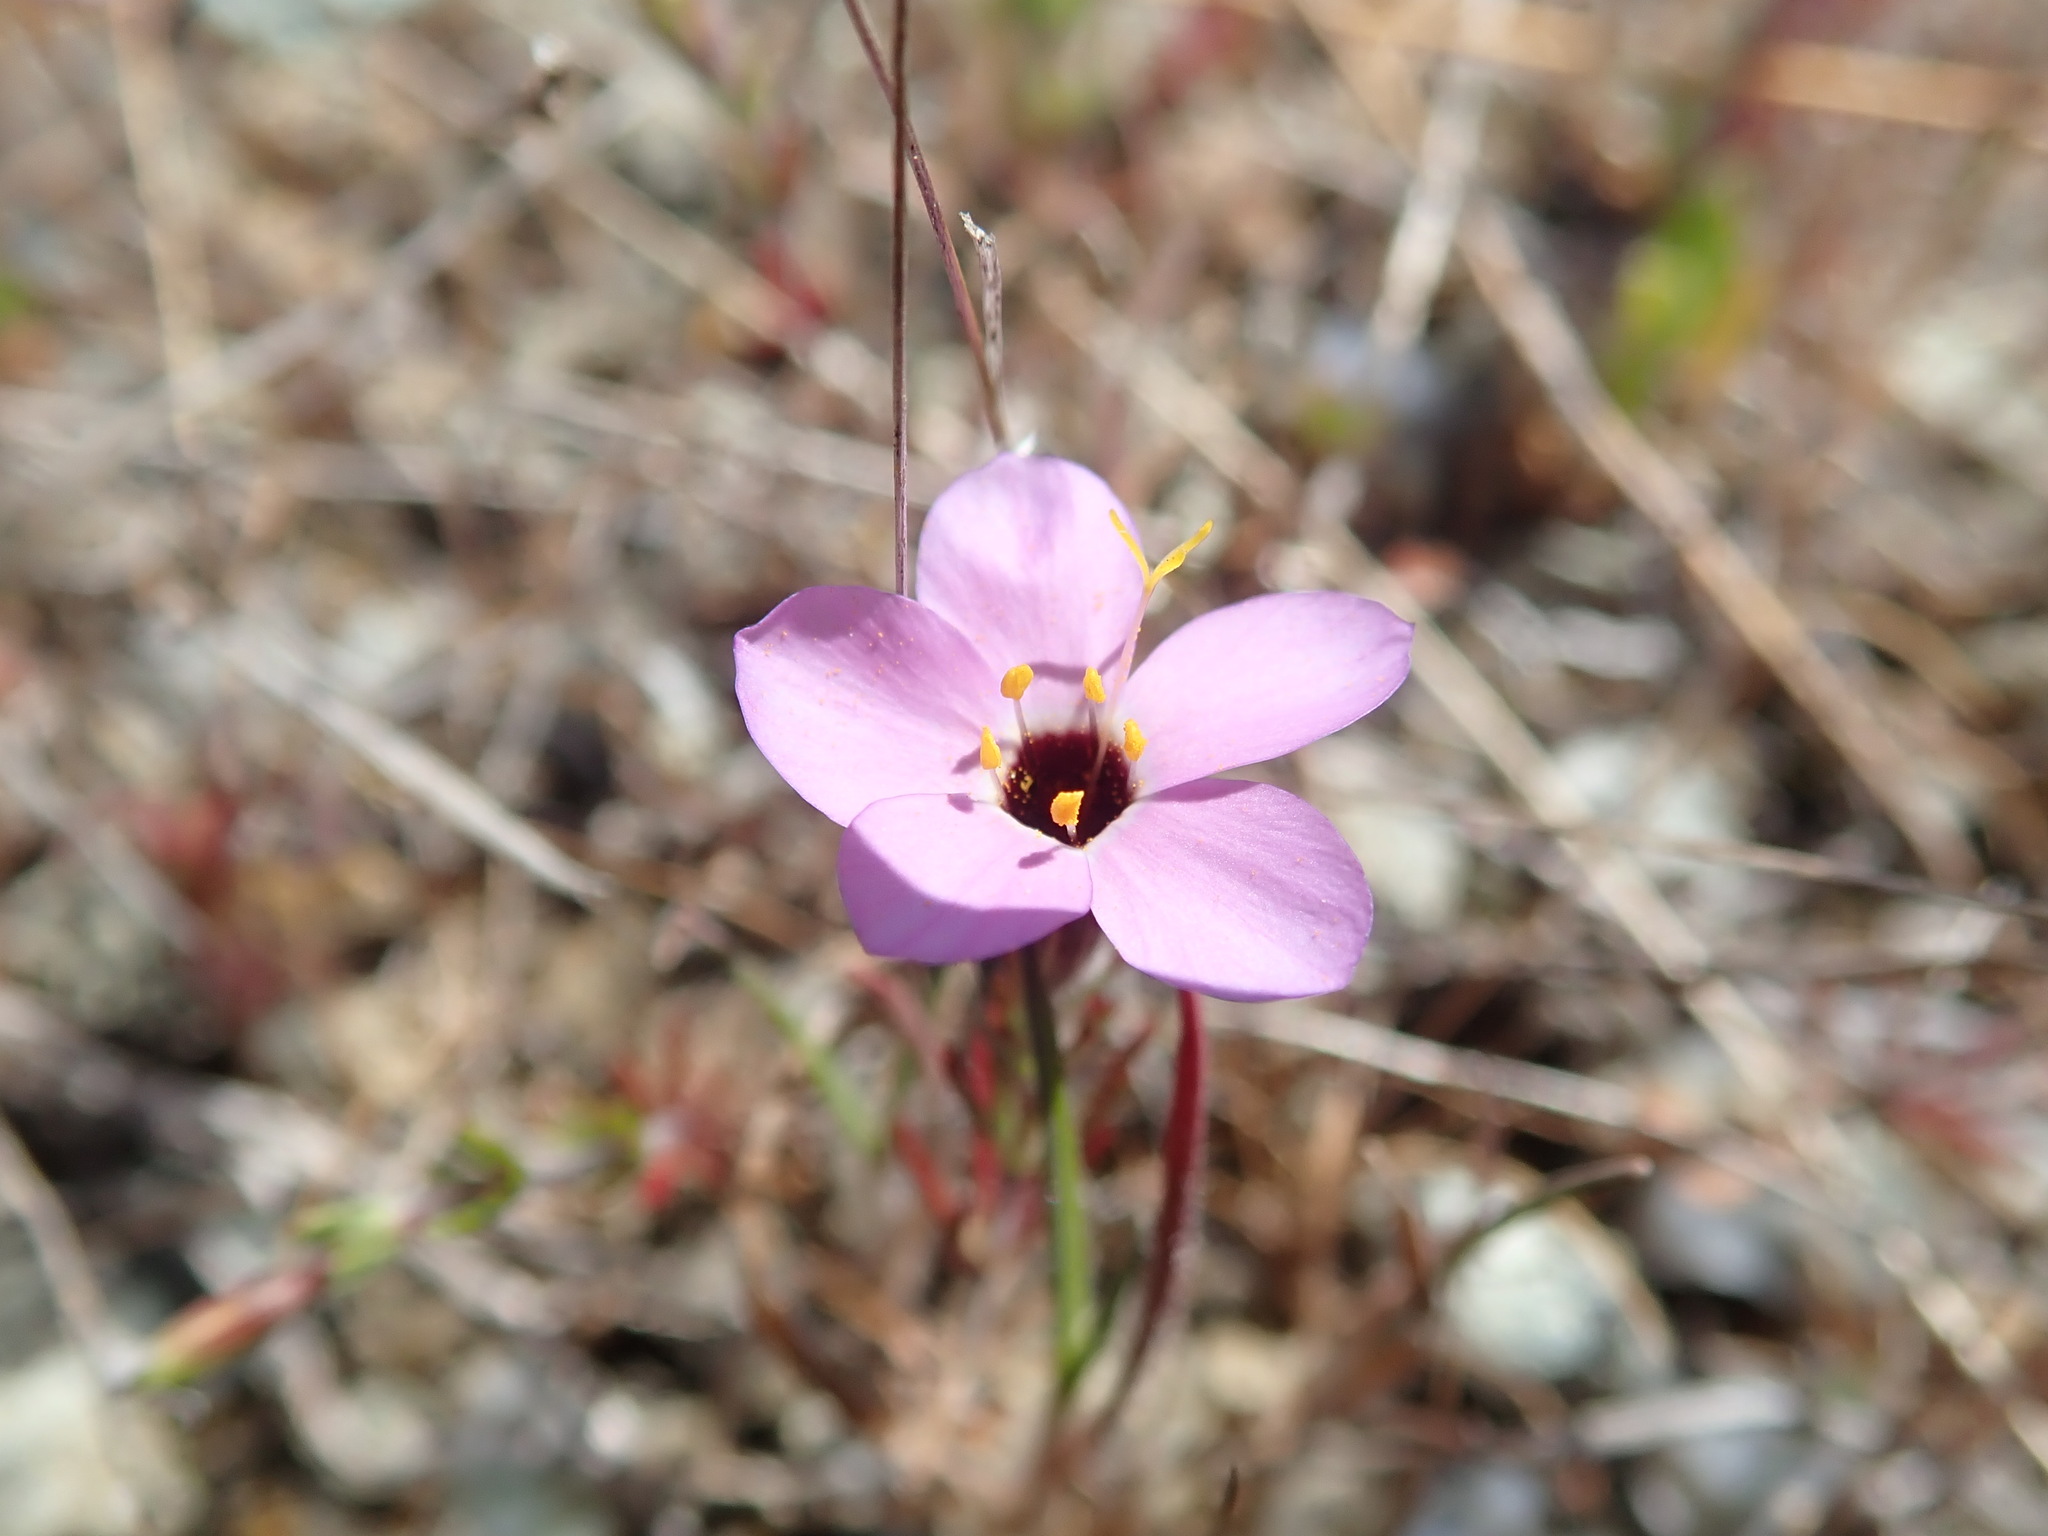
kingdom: Plantae
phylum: Tracheophyta
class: Magnoliopsida
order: Ericales
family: Polemoniaceae
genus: Leptosiphon
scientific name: Leptosiphon ambiguus
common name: Serpentine linanthus
